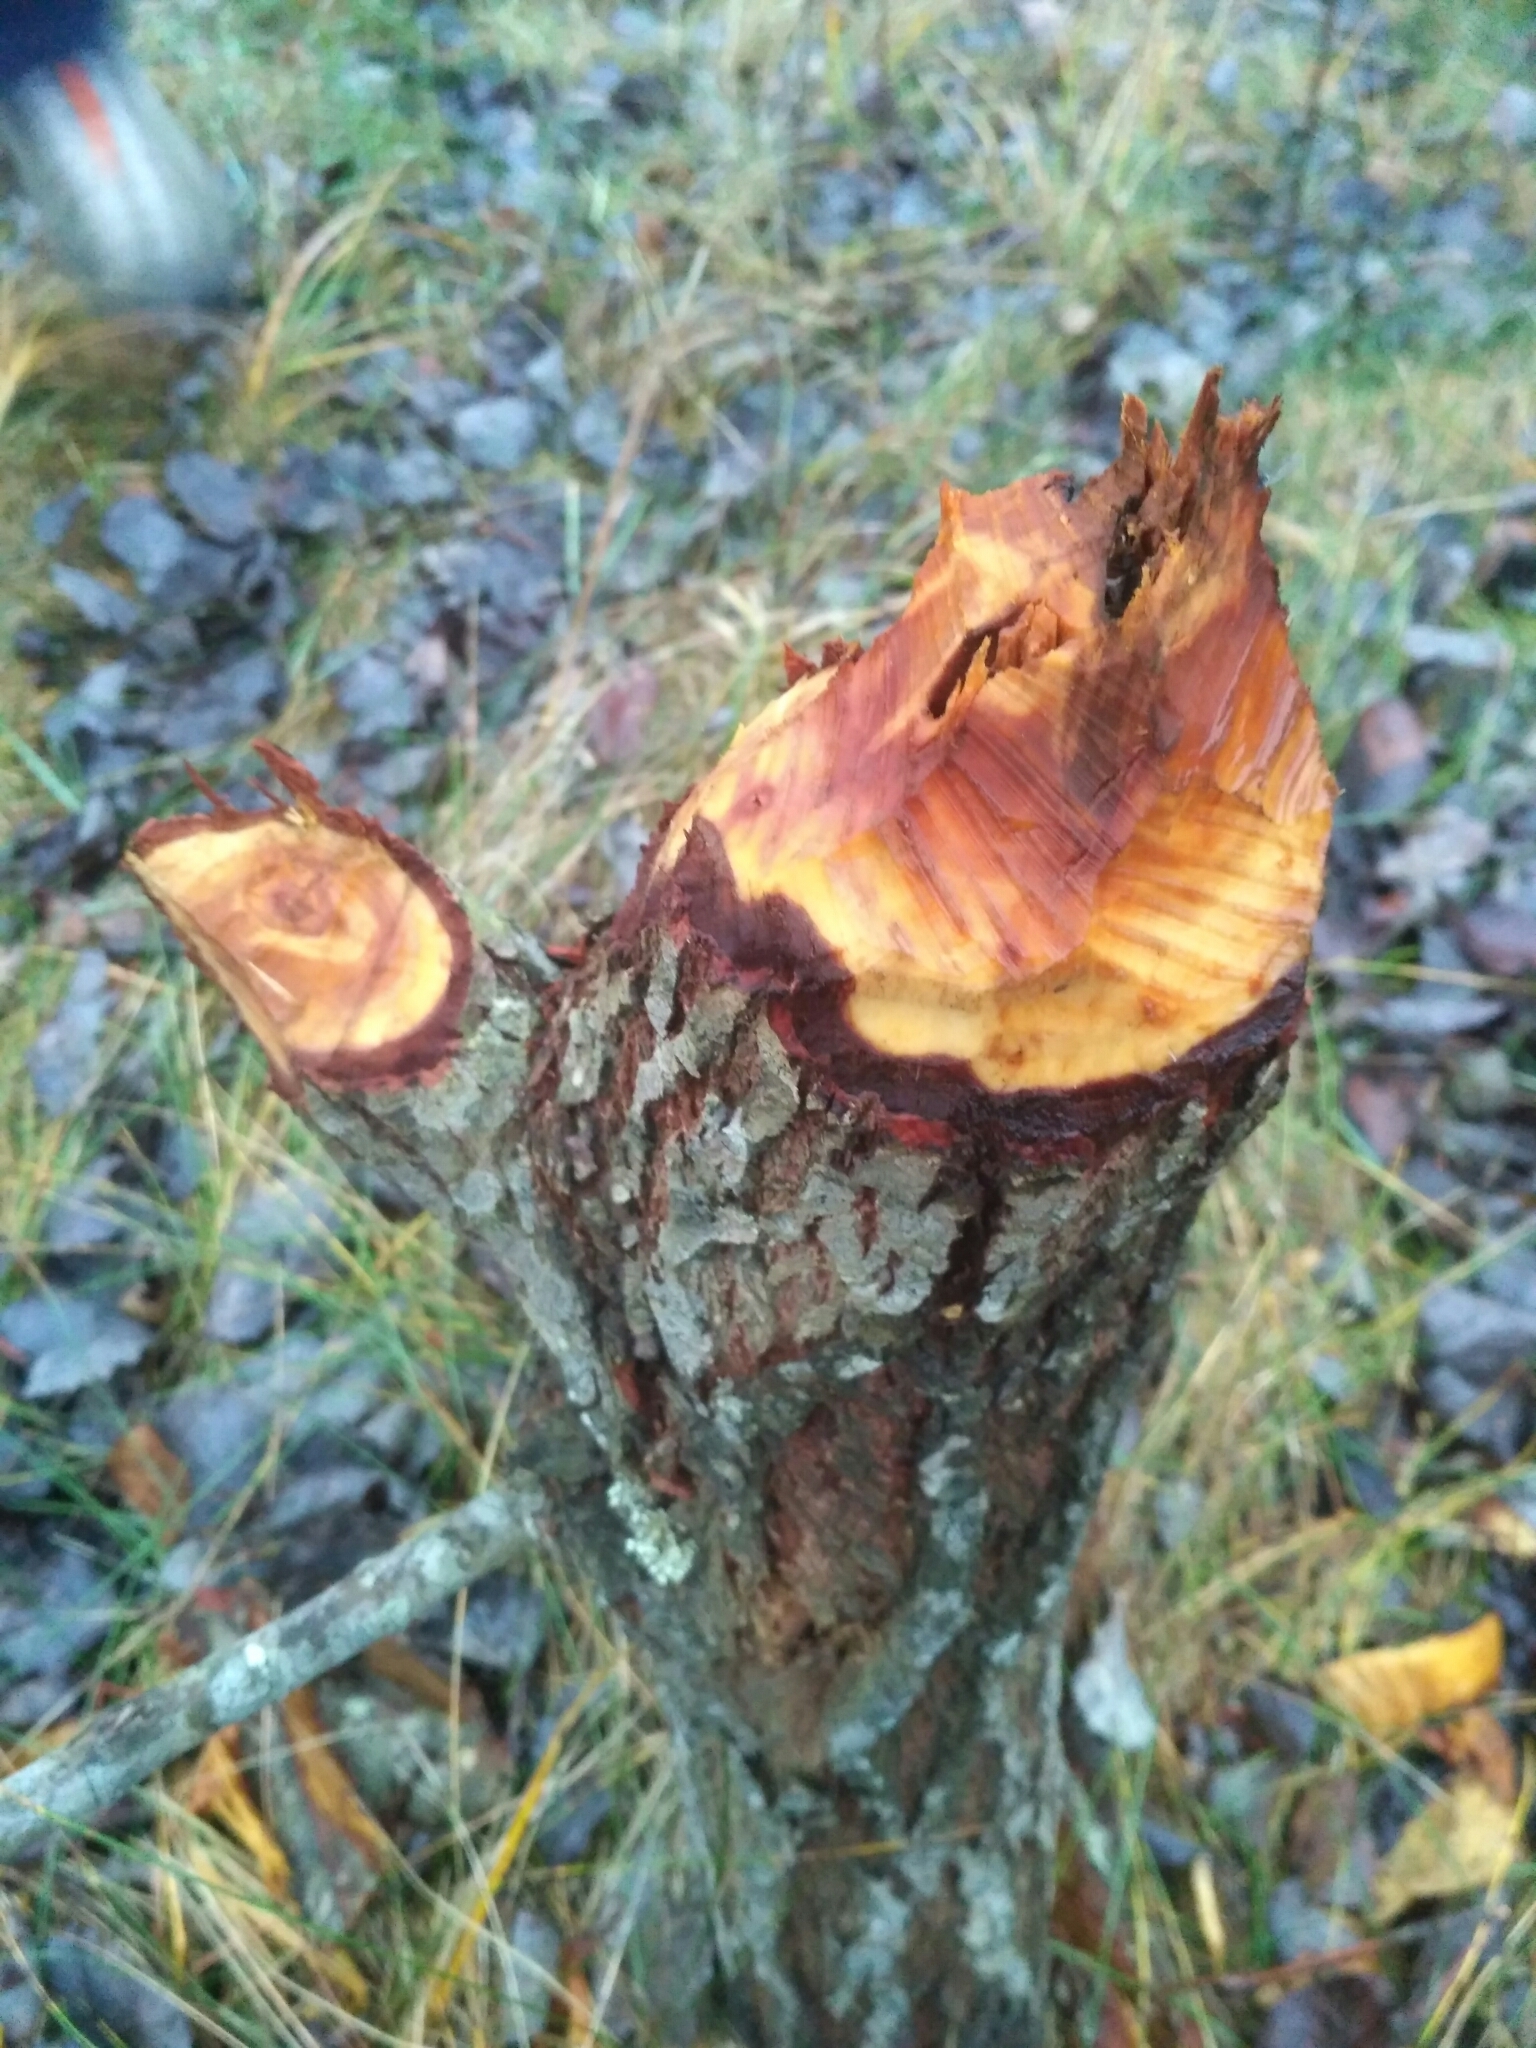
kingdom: Animalia
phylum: Chordata
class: Mammalia
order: Rodentia
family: Castoridae
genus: Castor
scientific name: Castor fiber
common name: Eurasian beaver
